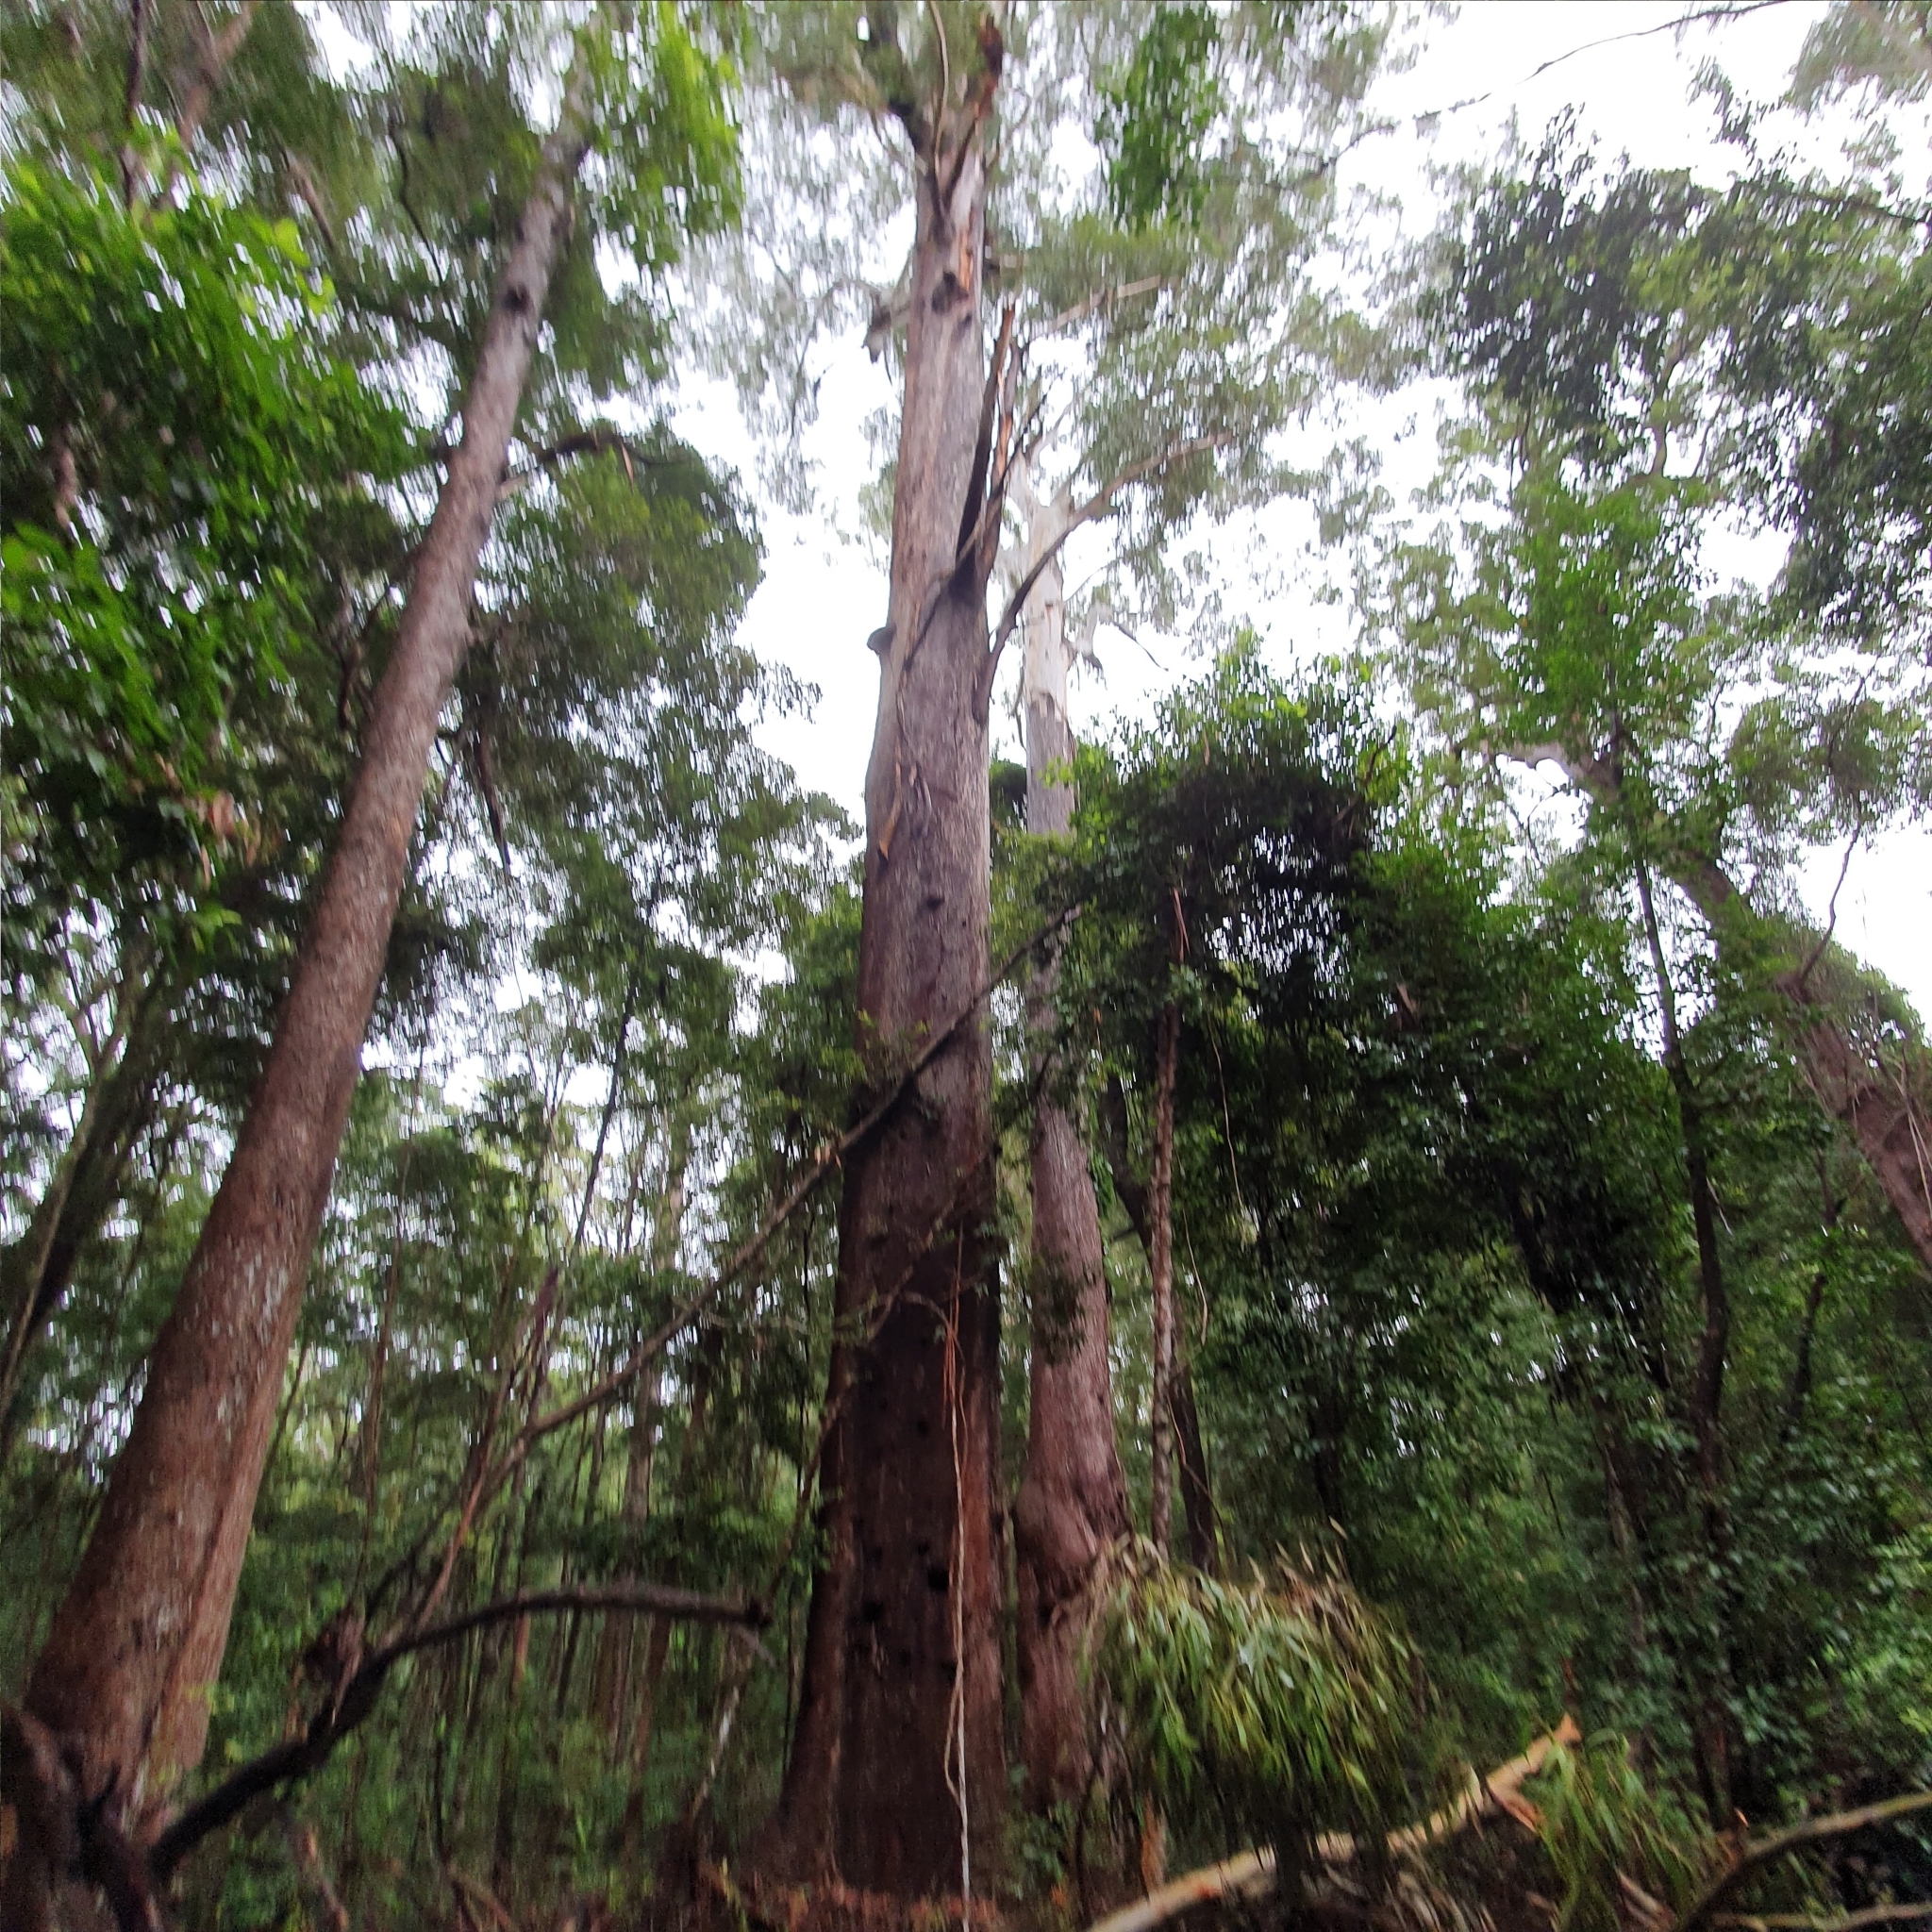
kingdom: Plantae
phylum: Tracheophyta
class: Magnoliopsida
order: Myrtales
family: Myrtaceae
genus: Eucalyptus
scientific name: Eucalyptus pilularis
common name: Blackbutt
